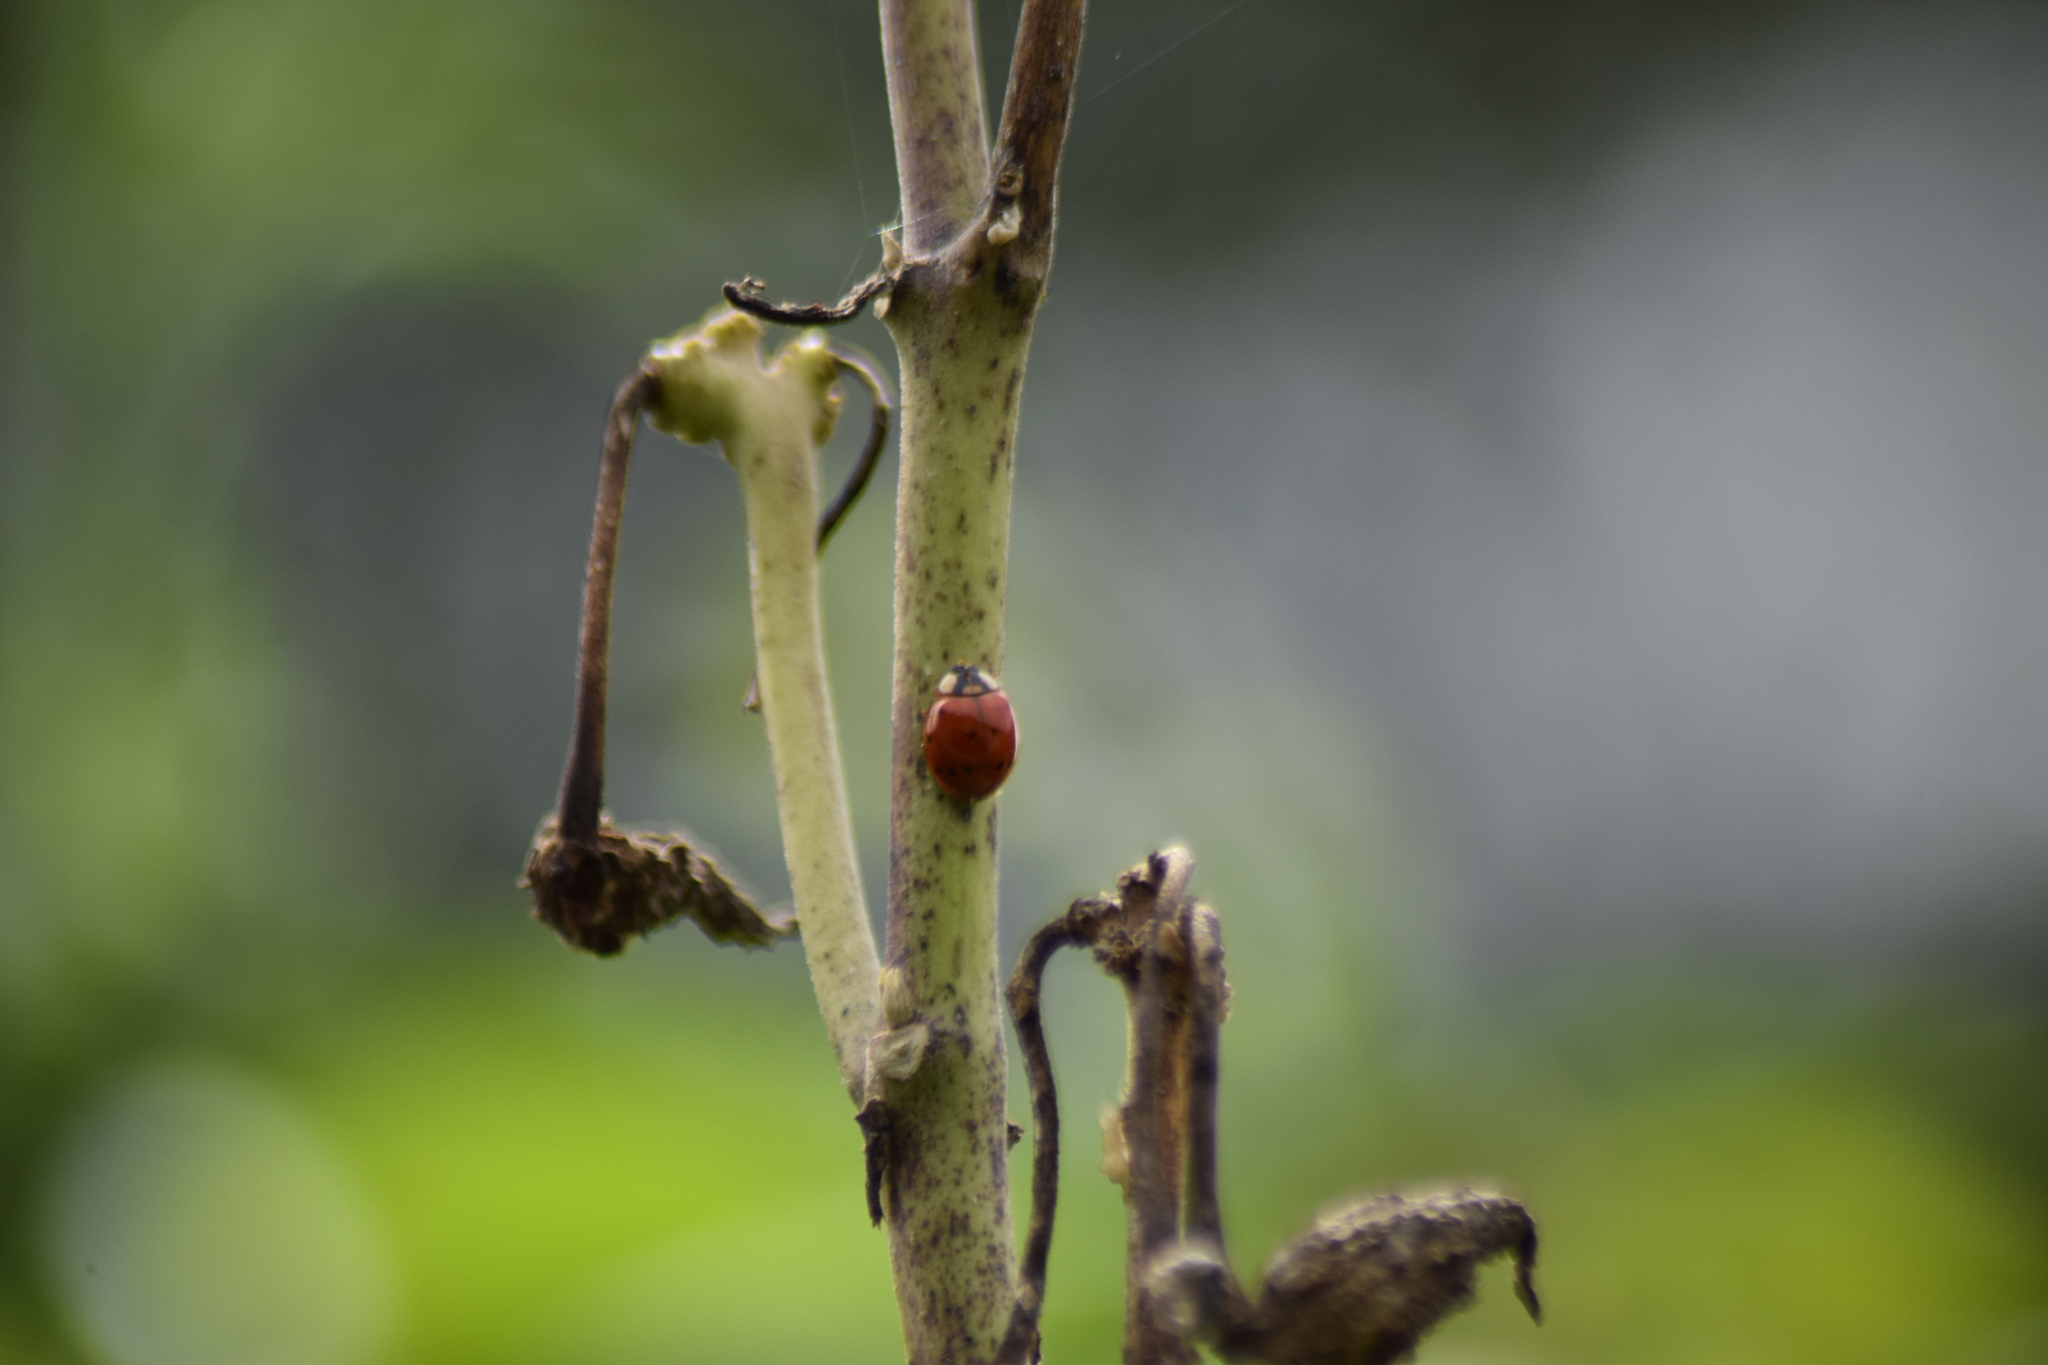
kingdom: Animalia
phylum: Arthropoda
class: Insecta
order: Coleoptera
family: Coccinellidae
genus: Harmonia
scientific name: Harmonia axyridis
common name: Harlequin ladybird
